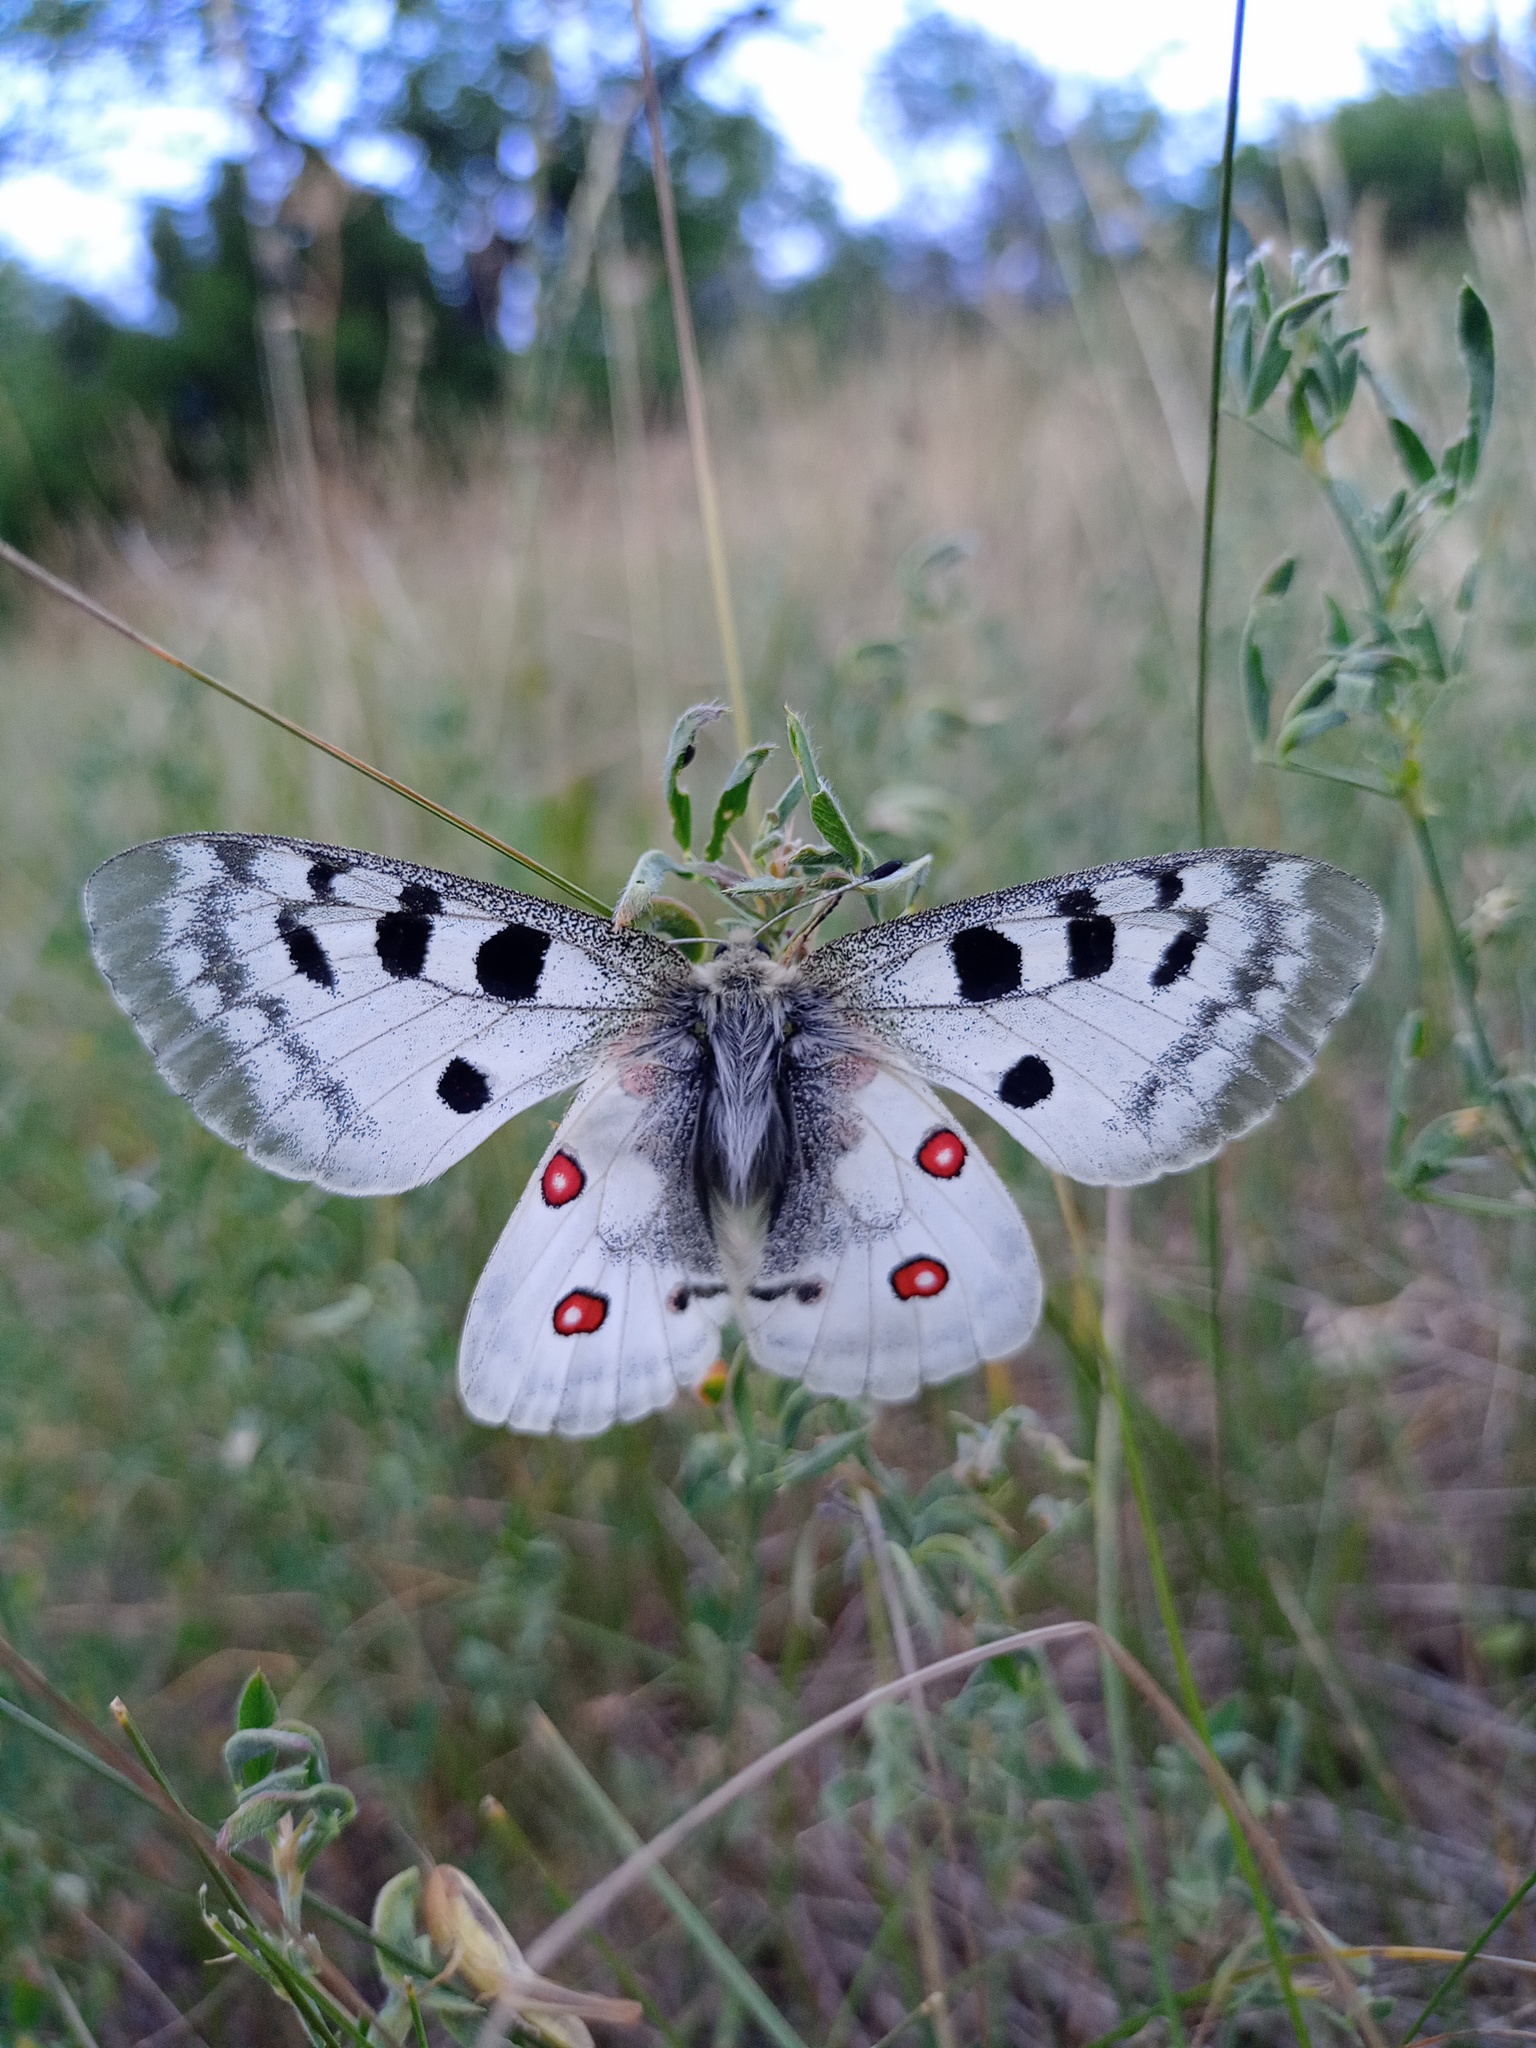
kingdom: Animalia
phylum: Arthropoda
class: Insecta
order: Lepidoptera
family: Papilionidae
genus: Parnassius
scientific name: Parnassius apollo
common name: Apollo
